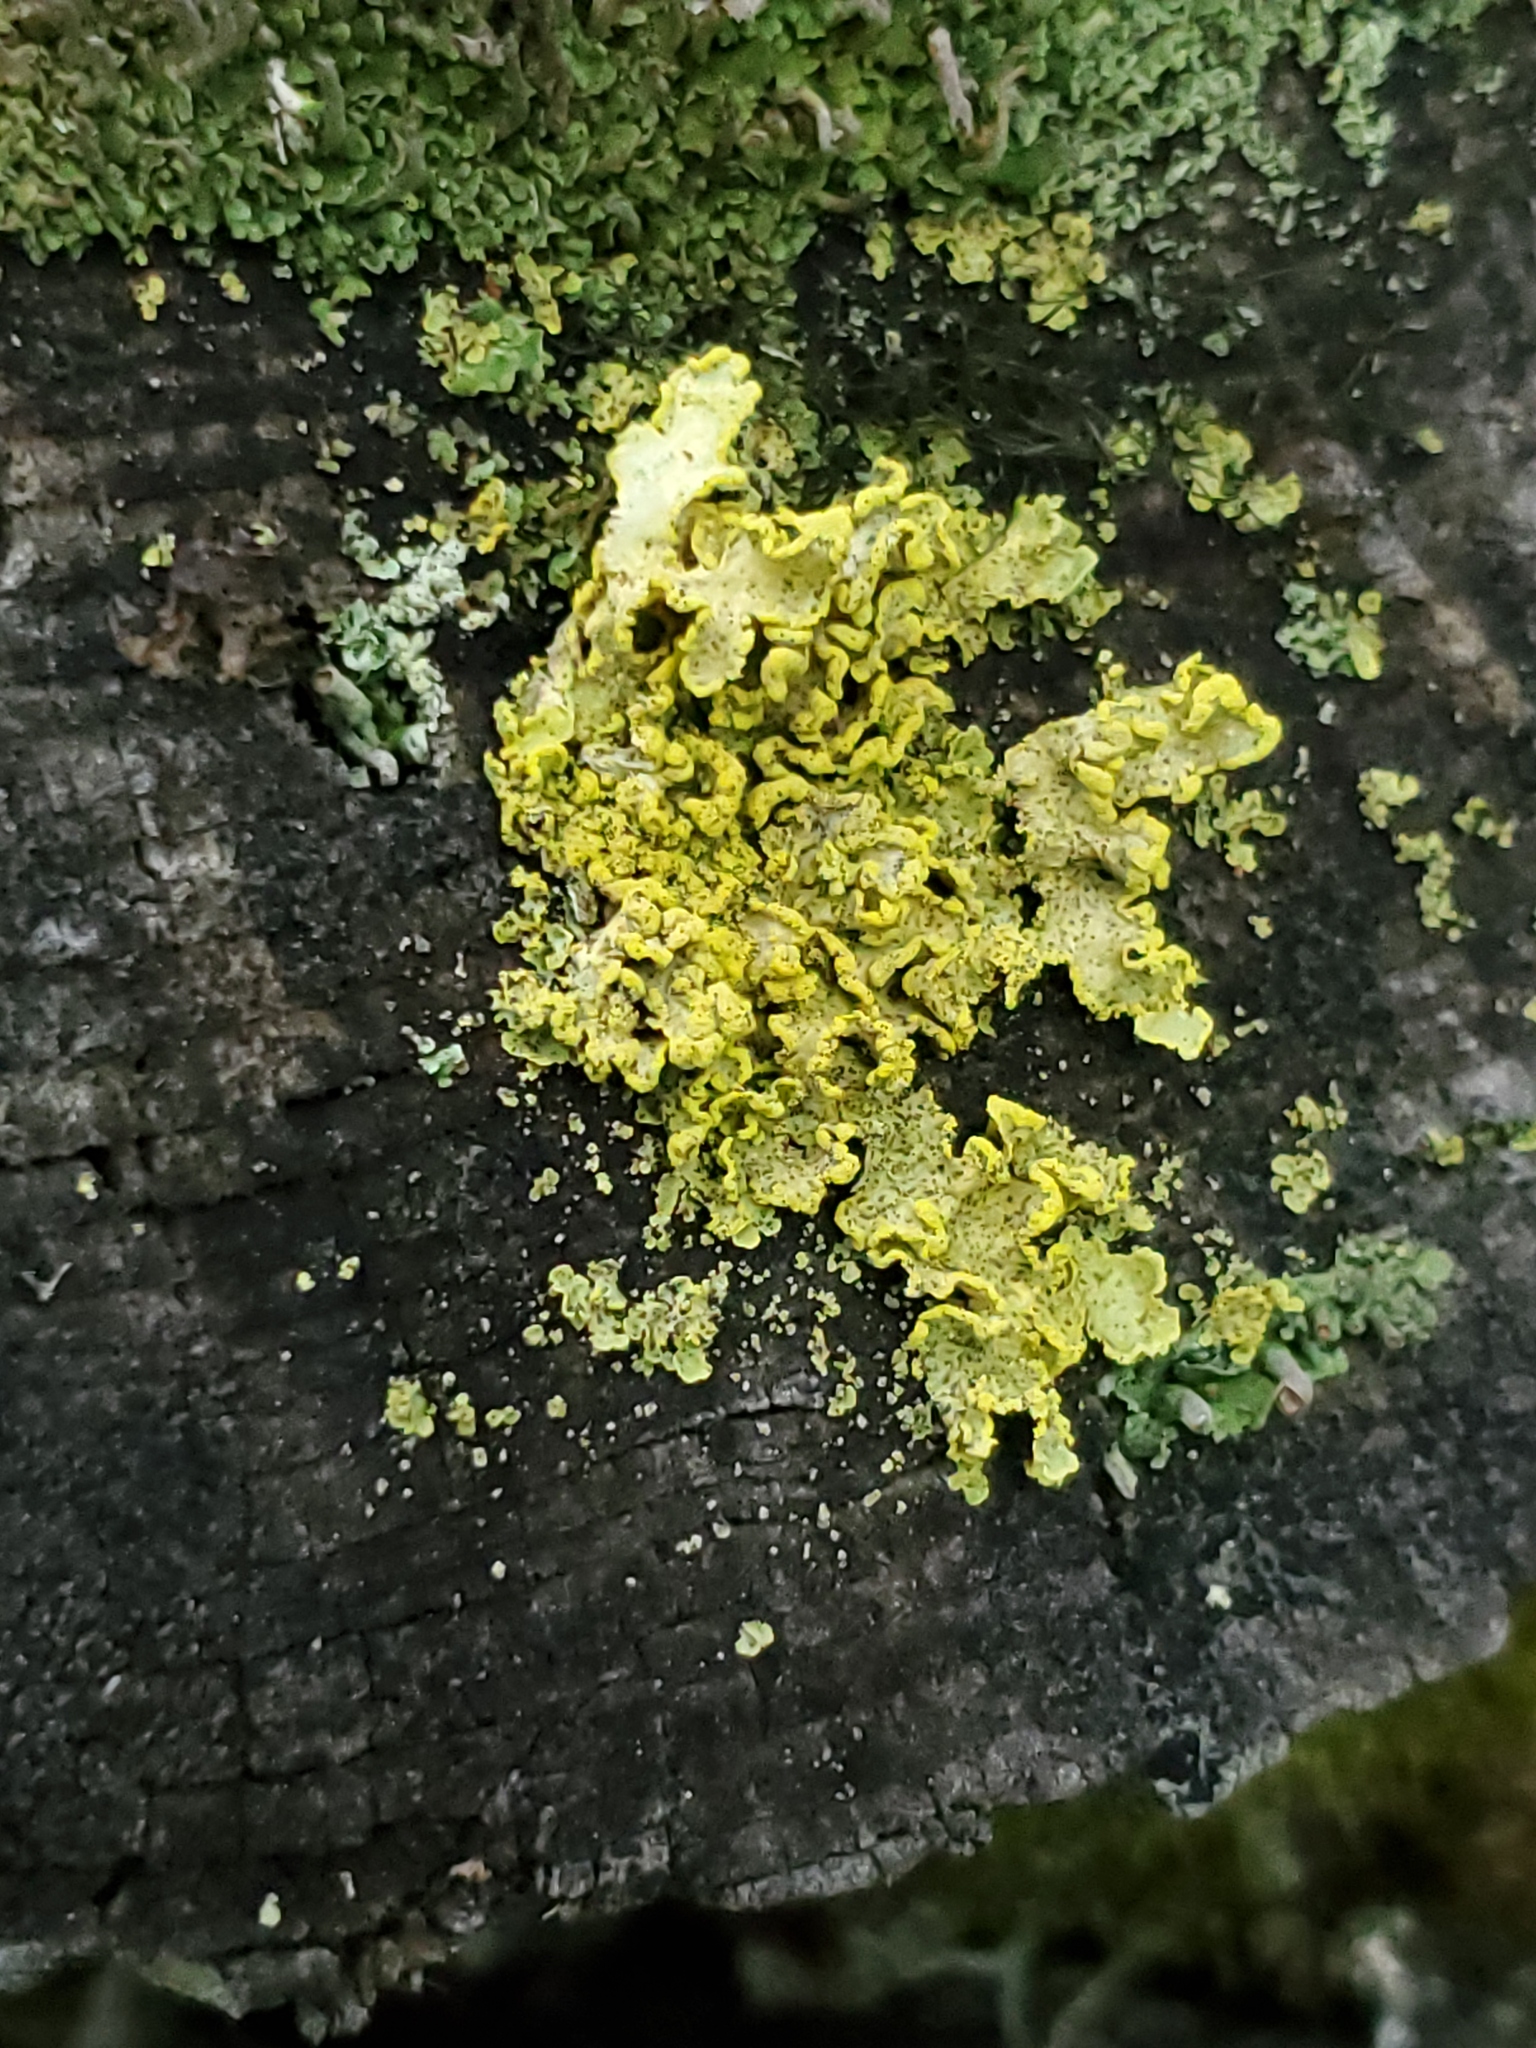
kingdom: Fungi
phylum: Ascomycota
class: Lecanoromycetes
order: Lecanorales
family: Parmeliaceae
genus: Vulpicida
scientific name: Vulpicida pinastri
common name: Powdered sunshine lichen
